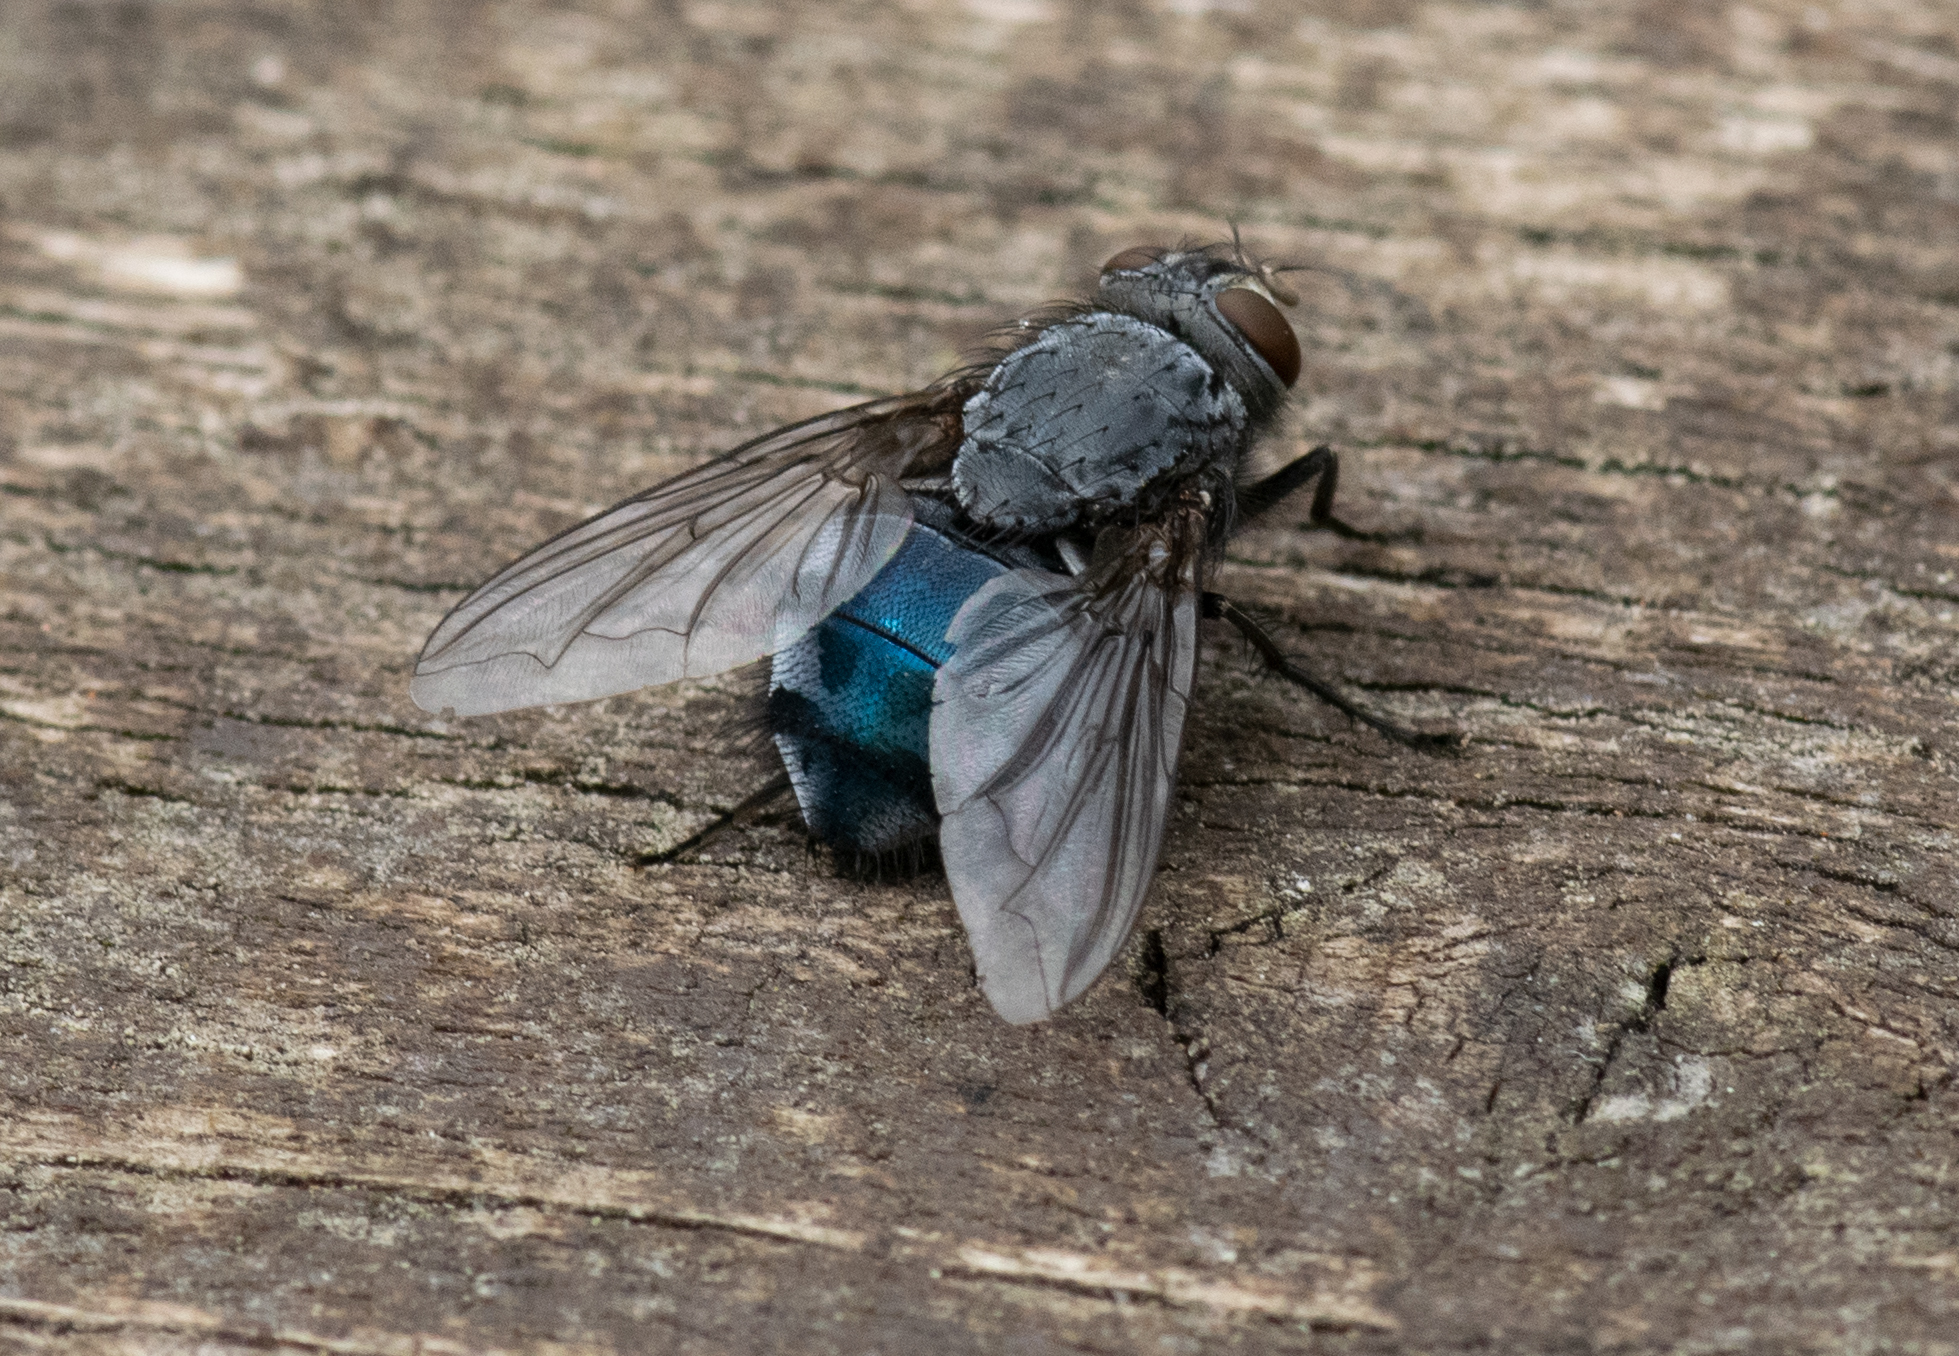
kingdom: Animalia
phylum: Arthropoda
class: Insecta
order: Diptera
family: Calliphoridae
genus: Calliphora
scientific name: Calliphora vicina
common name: Common blow flie
